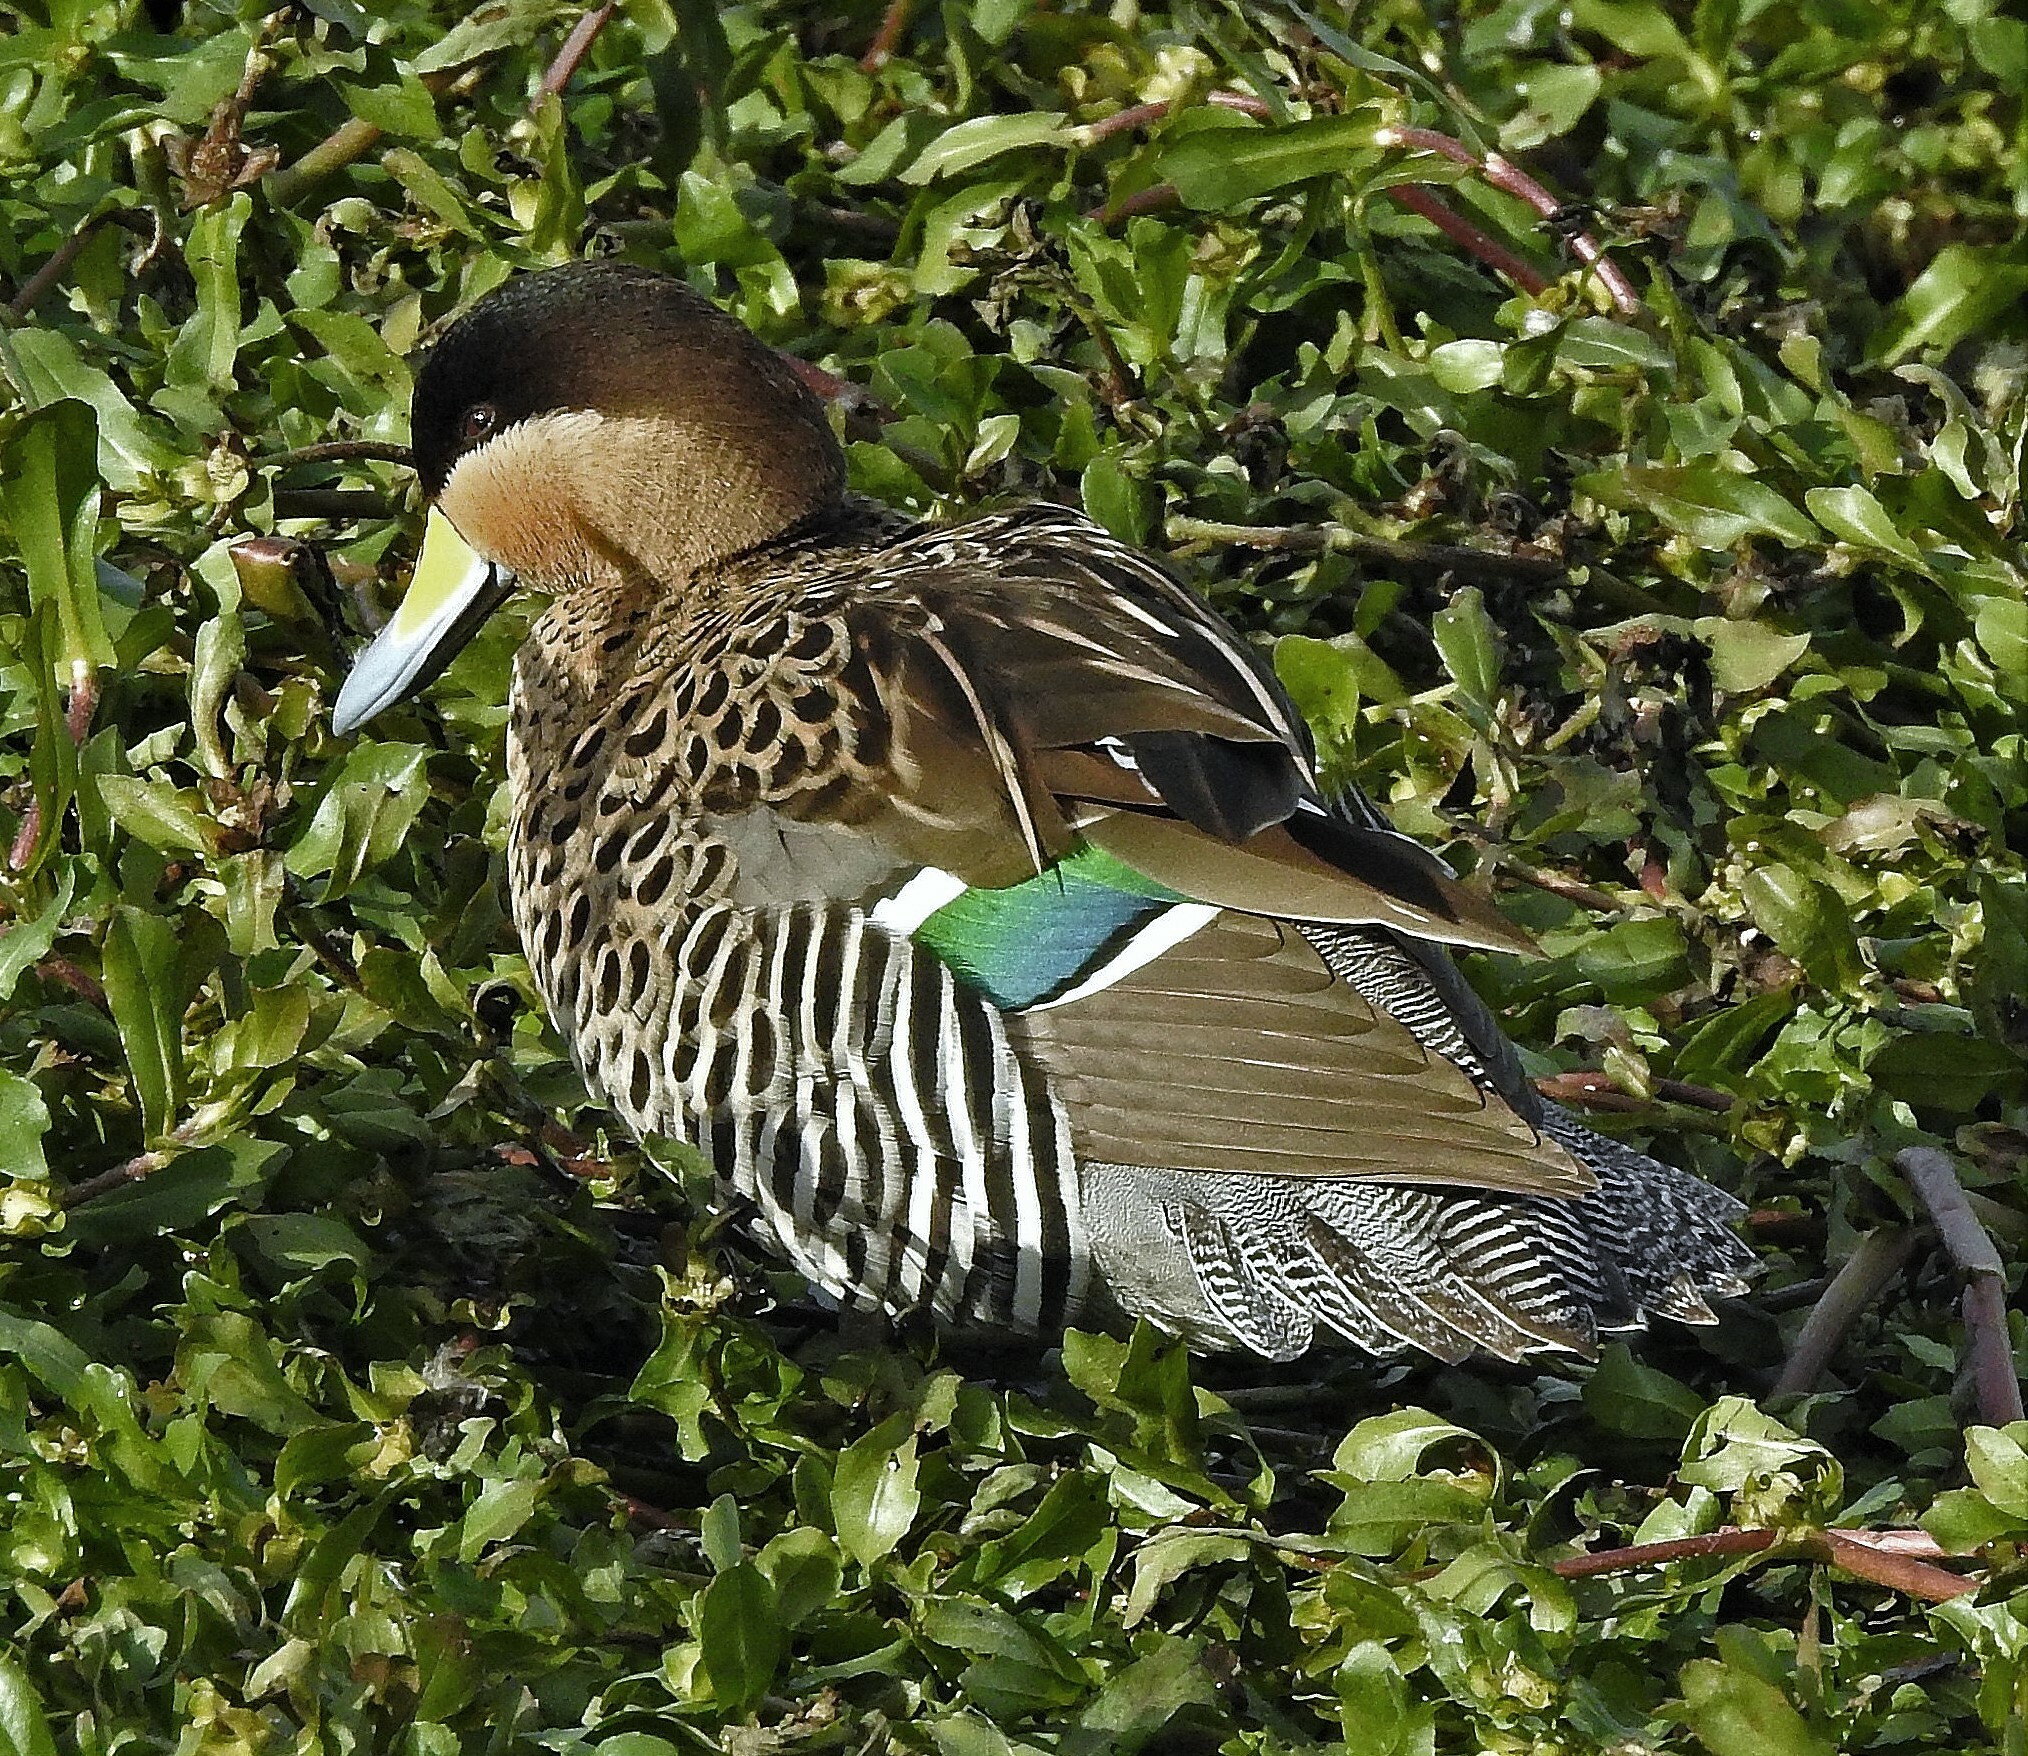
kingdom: Animalia
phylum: Chordata
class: Aves
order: Anseriformes
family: Anatidae
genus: Spatula
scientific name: Spatula versicolor
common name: Silver teal
